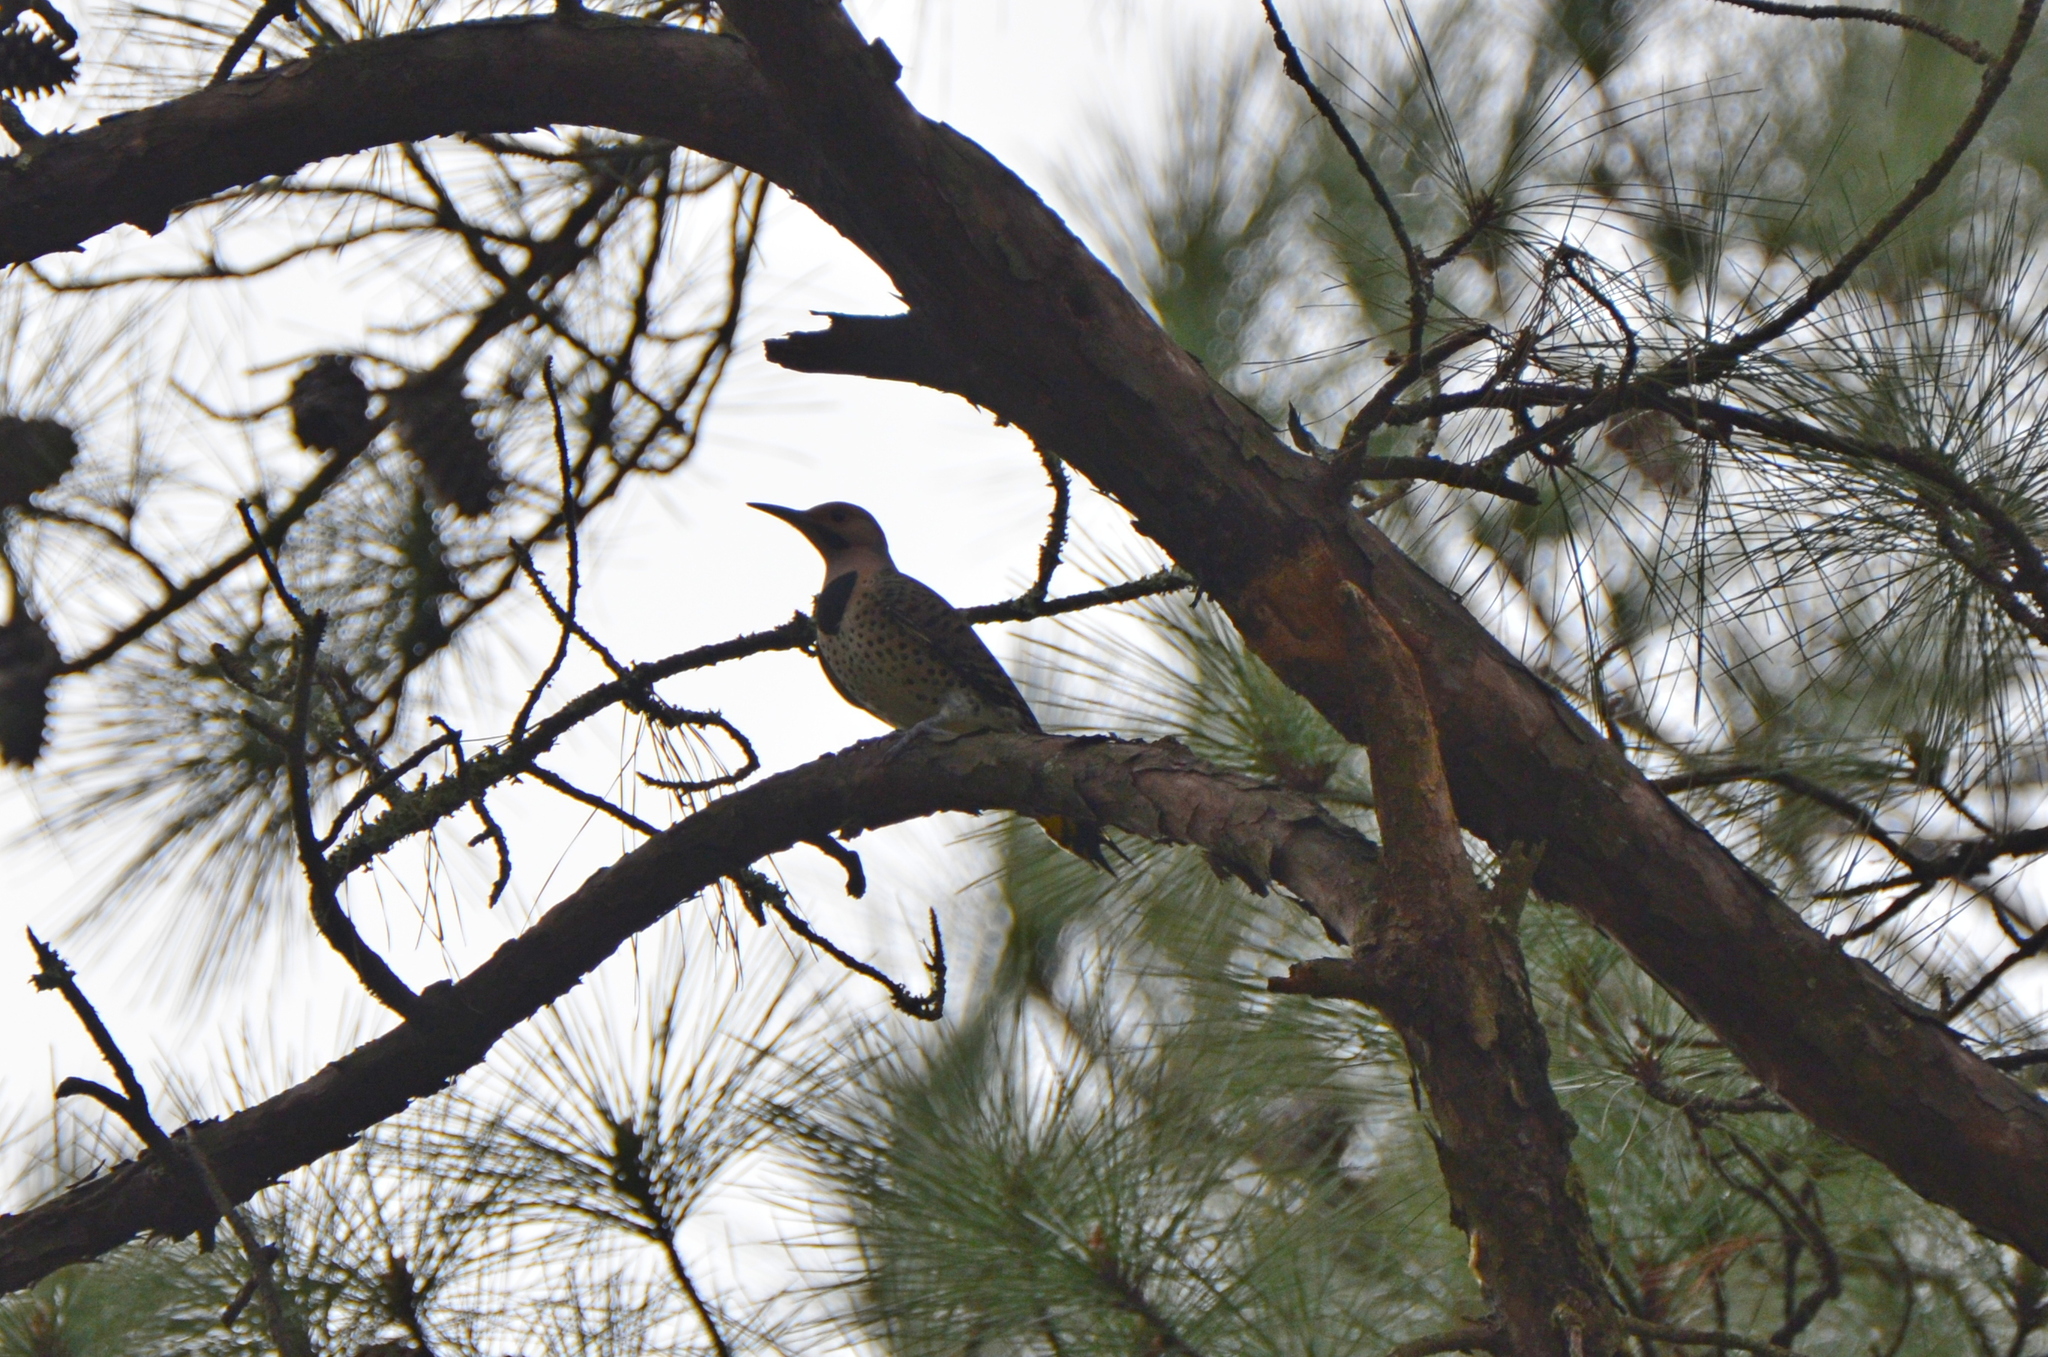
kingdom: Animalia
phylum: Chordata
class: Aves
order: Piciformes
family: Picidae
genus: Colaptes
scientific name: Colaptes auratus
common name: Northern flicker
